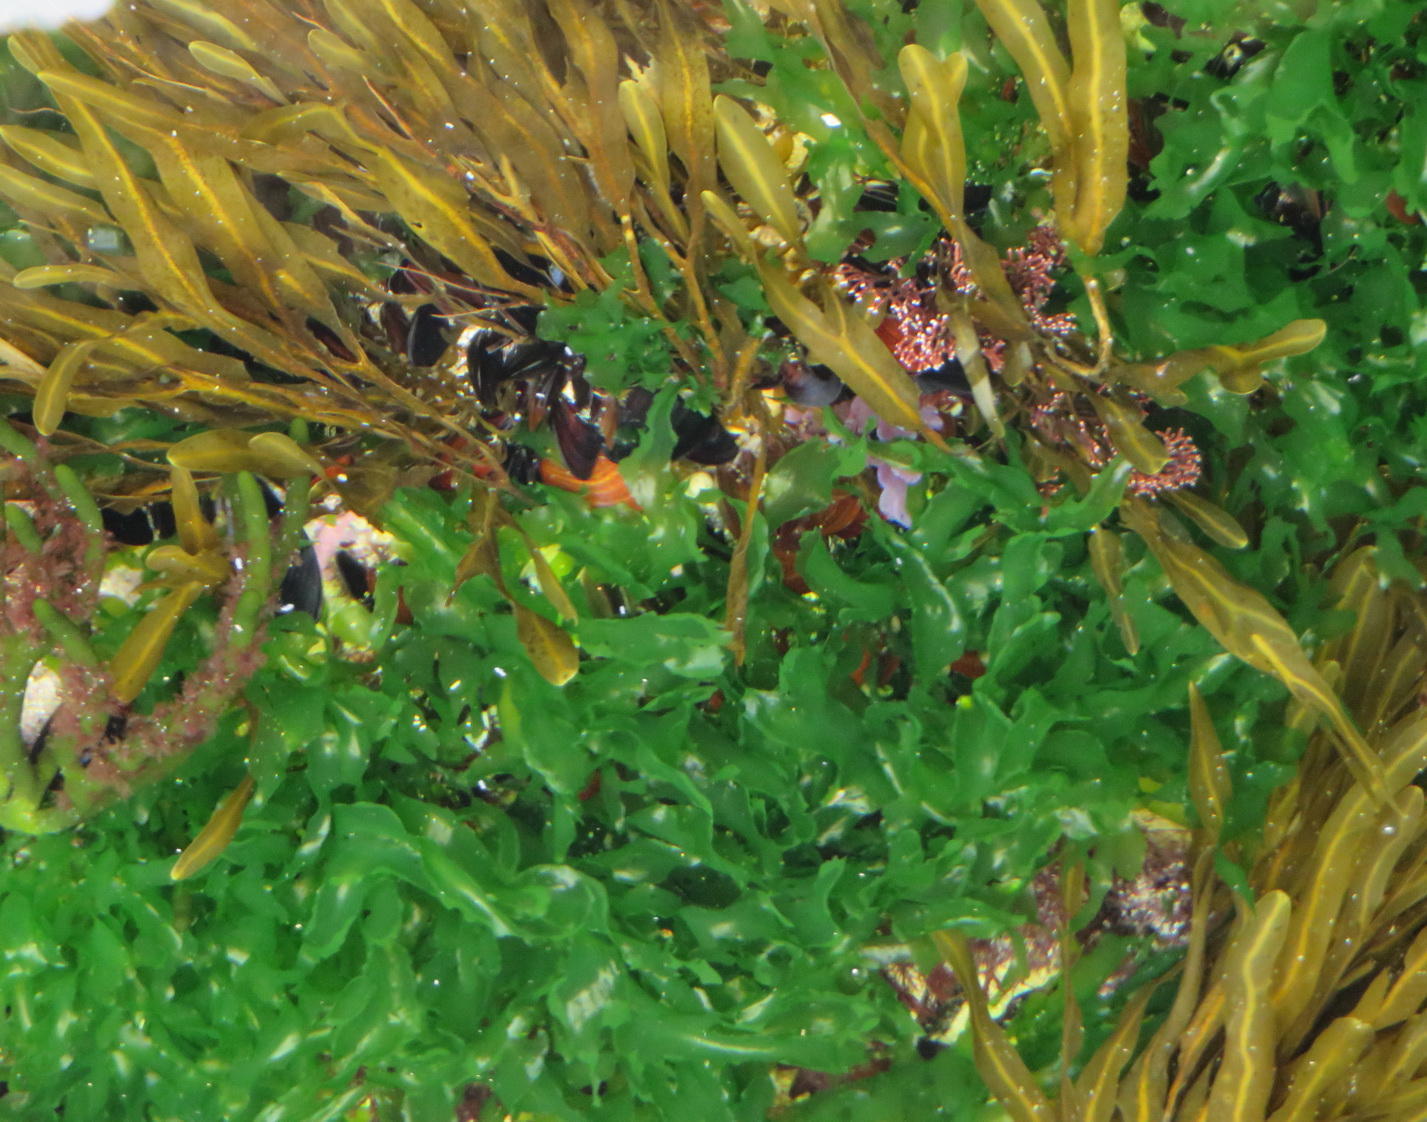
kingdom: Chromista
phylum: Ochrophyta
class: Phaeophyceae
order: Dictyotales
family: Dictyotaceae
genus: Dictyopteris
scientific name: Dictyopteris
